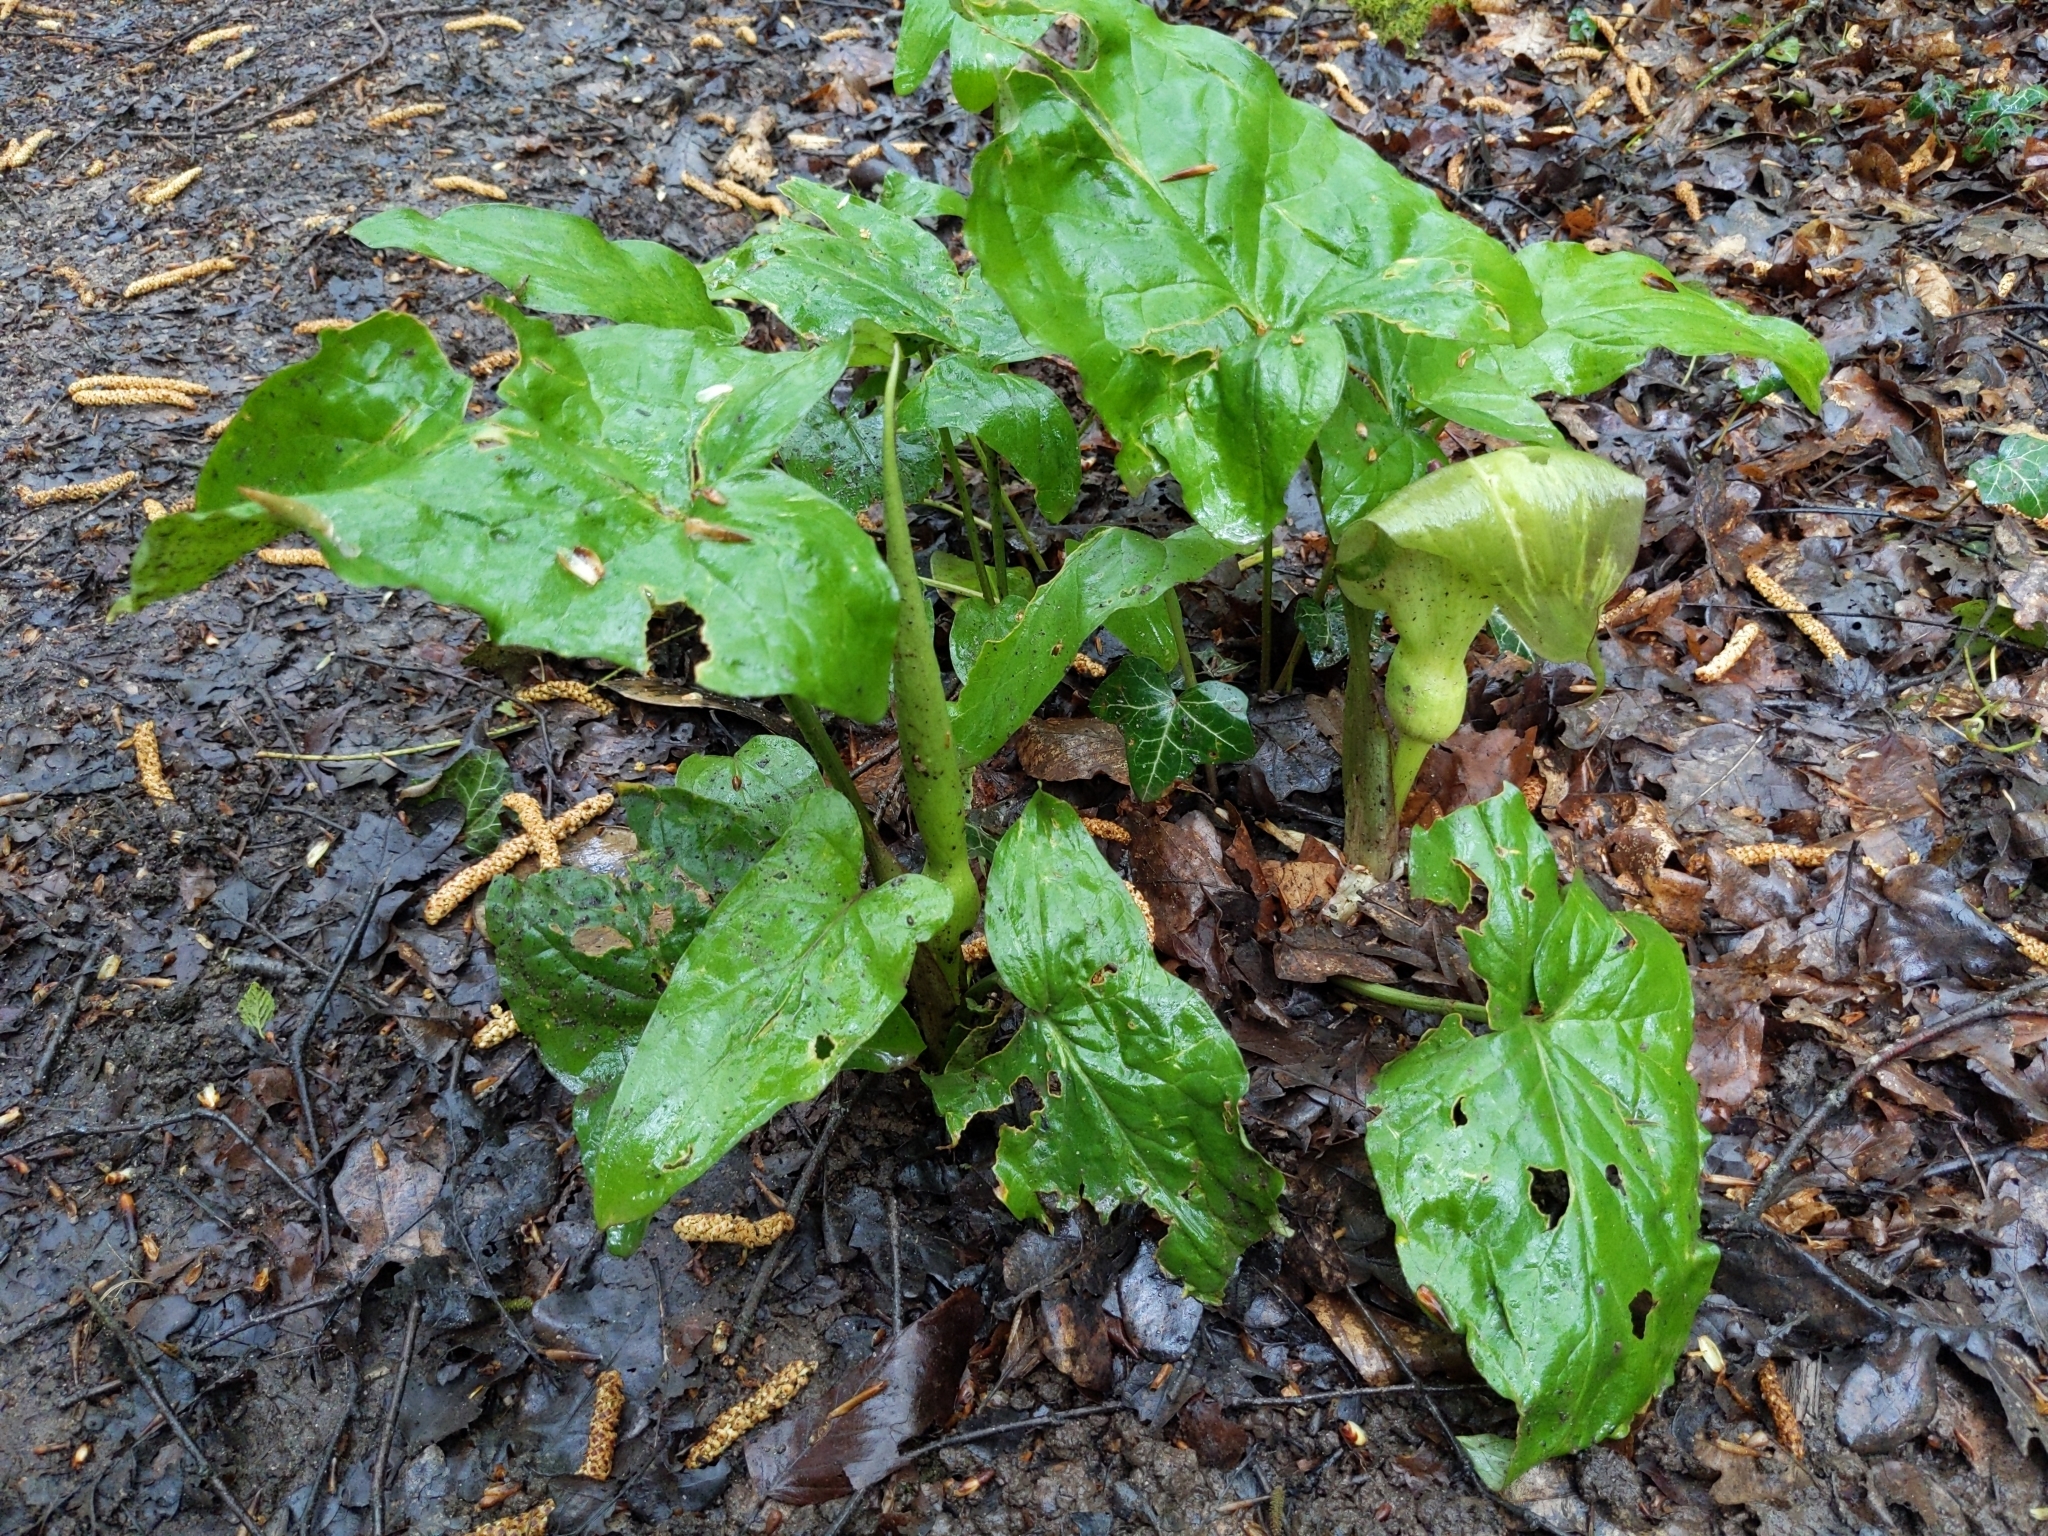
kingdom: Plantae
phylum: Tracheophyta
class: Liliopsida
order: Alismatales
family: Araceae
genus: Arum
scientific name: Arum maculatum
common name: Lords-and-ladies
